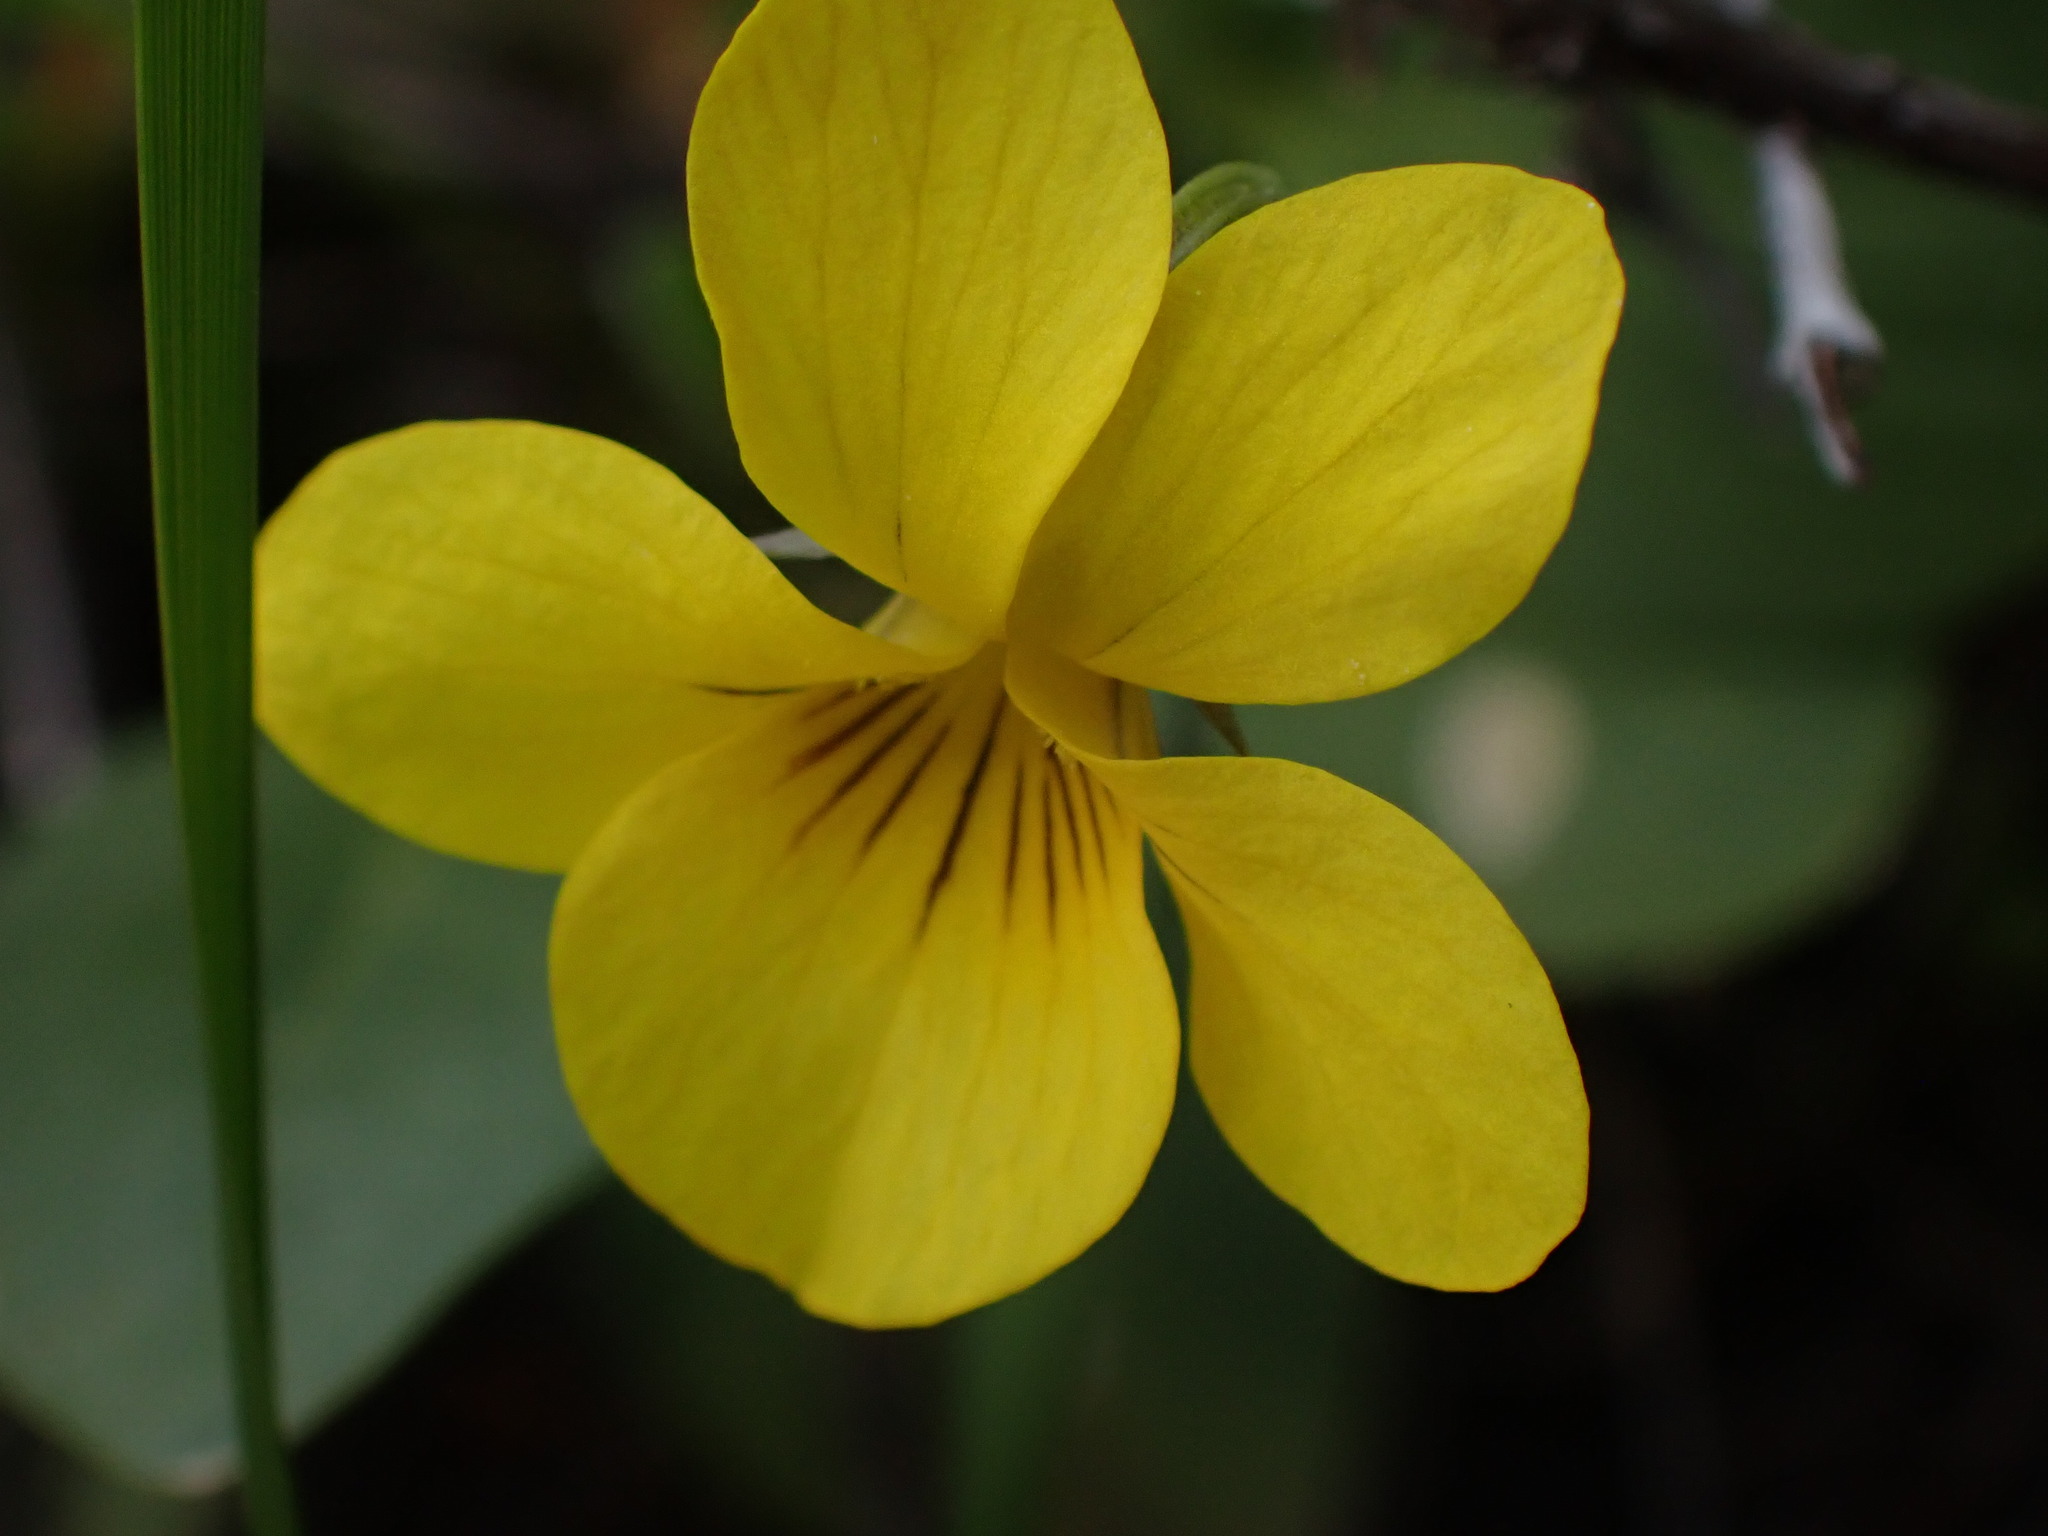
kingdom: Plantae
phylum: Tracheophyta
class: Magnoliopsida
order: Malpighiales
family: Violaceae
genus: Viola
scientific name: Viola vallicola
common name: Valley violet
